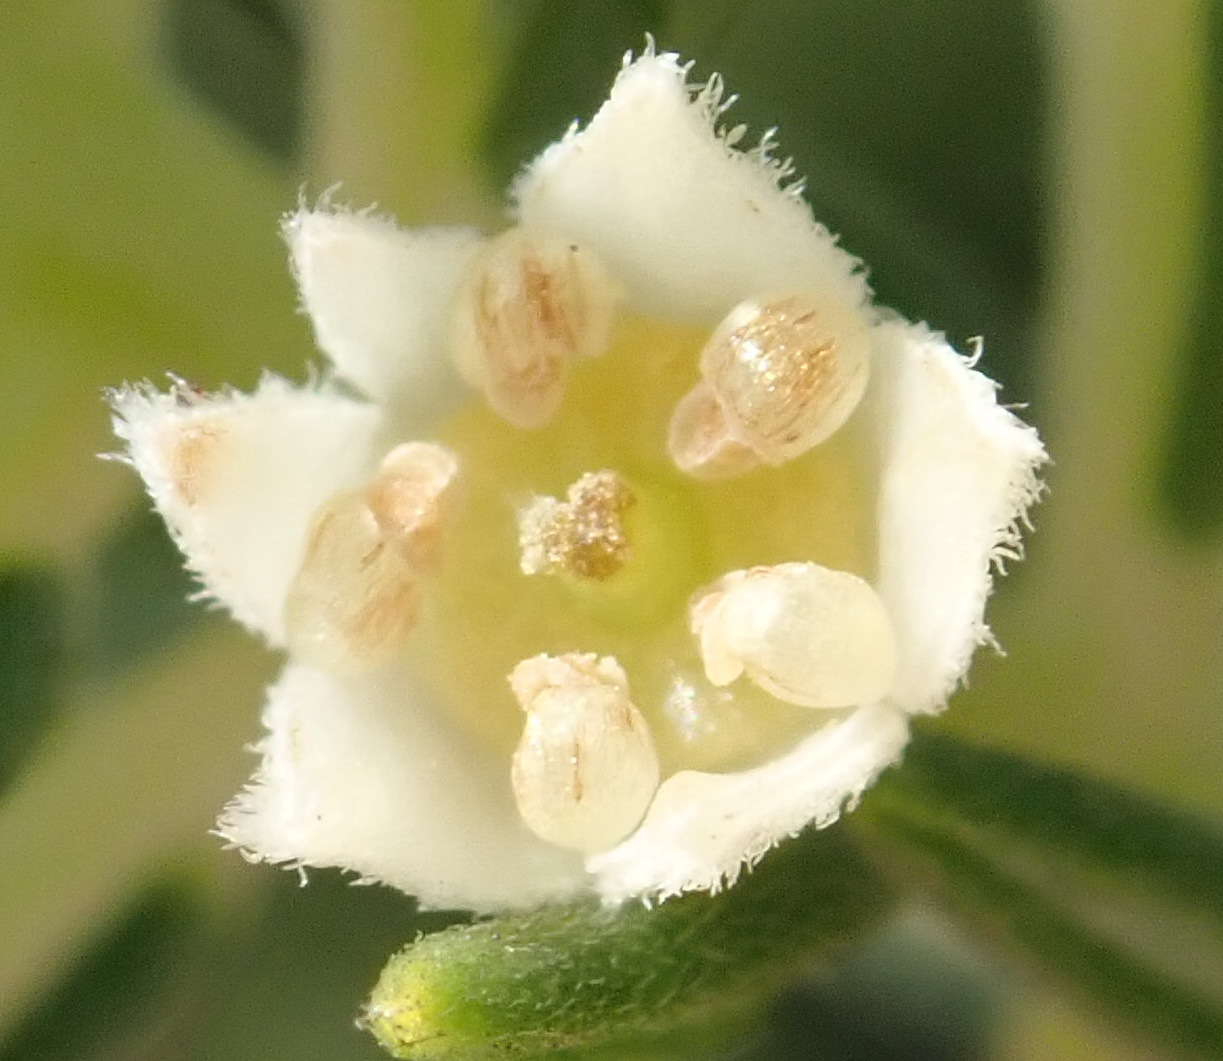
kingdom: Plantae
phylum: Tracheophyta
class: Magnoliopsida
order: Rosales
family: Rhamnaceae
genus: Phylica
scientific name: Phylica axillaris
